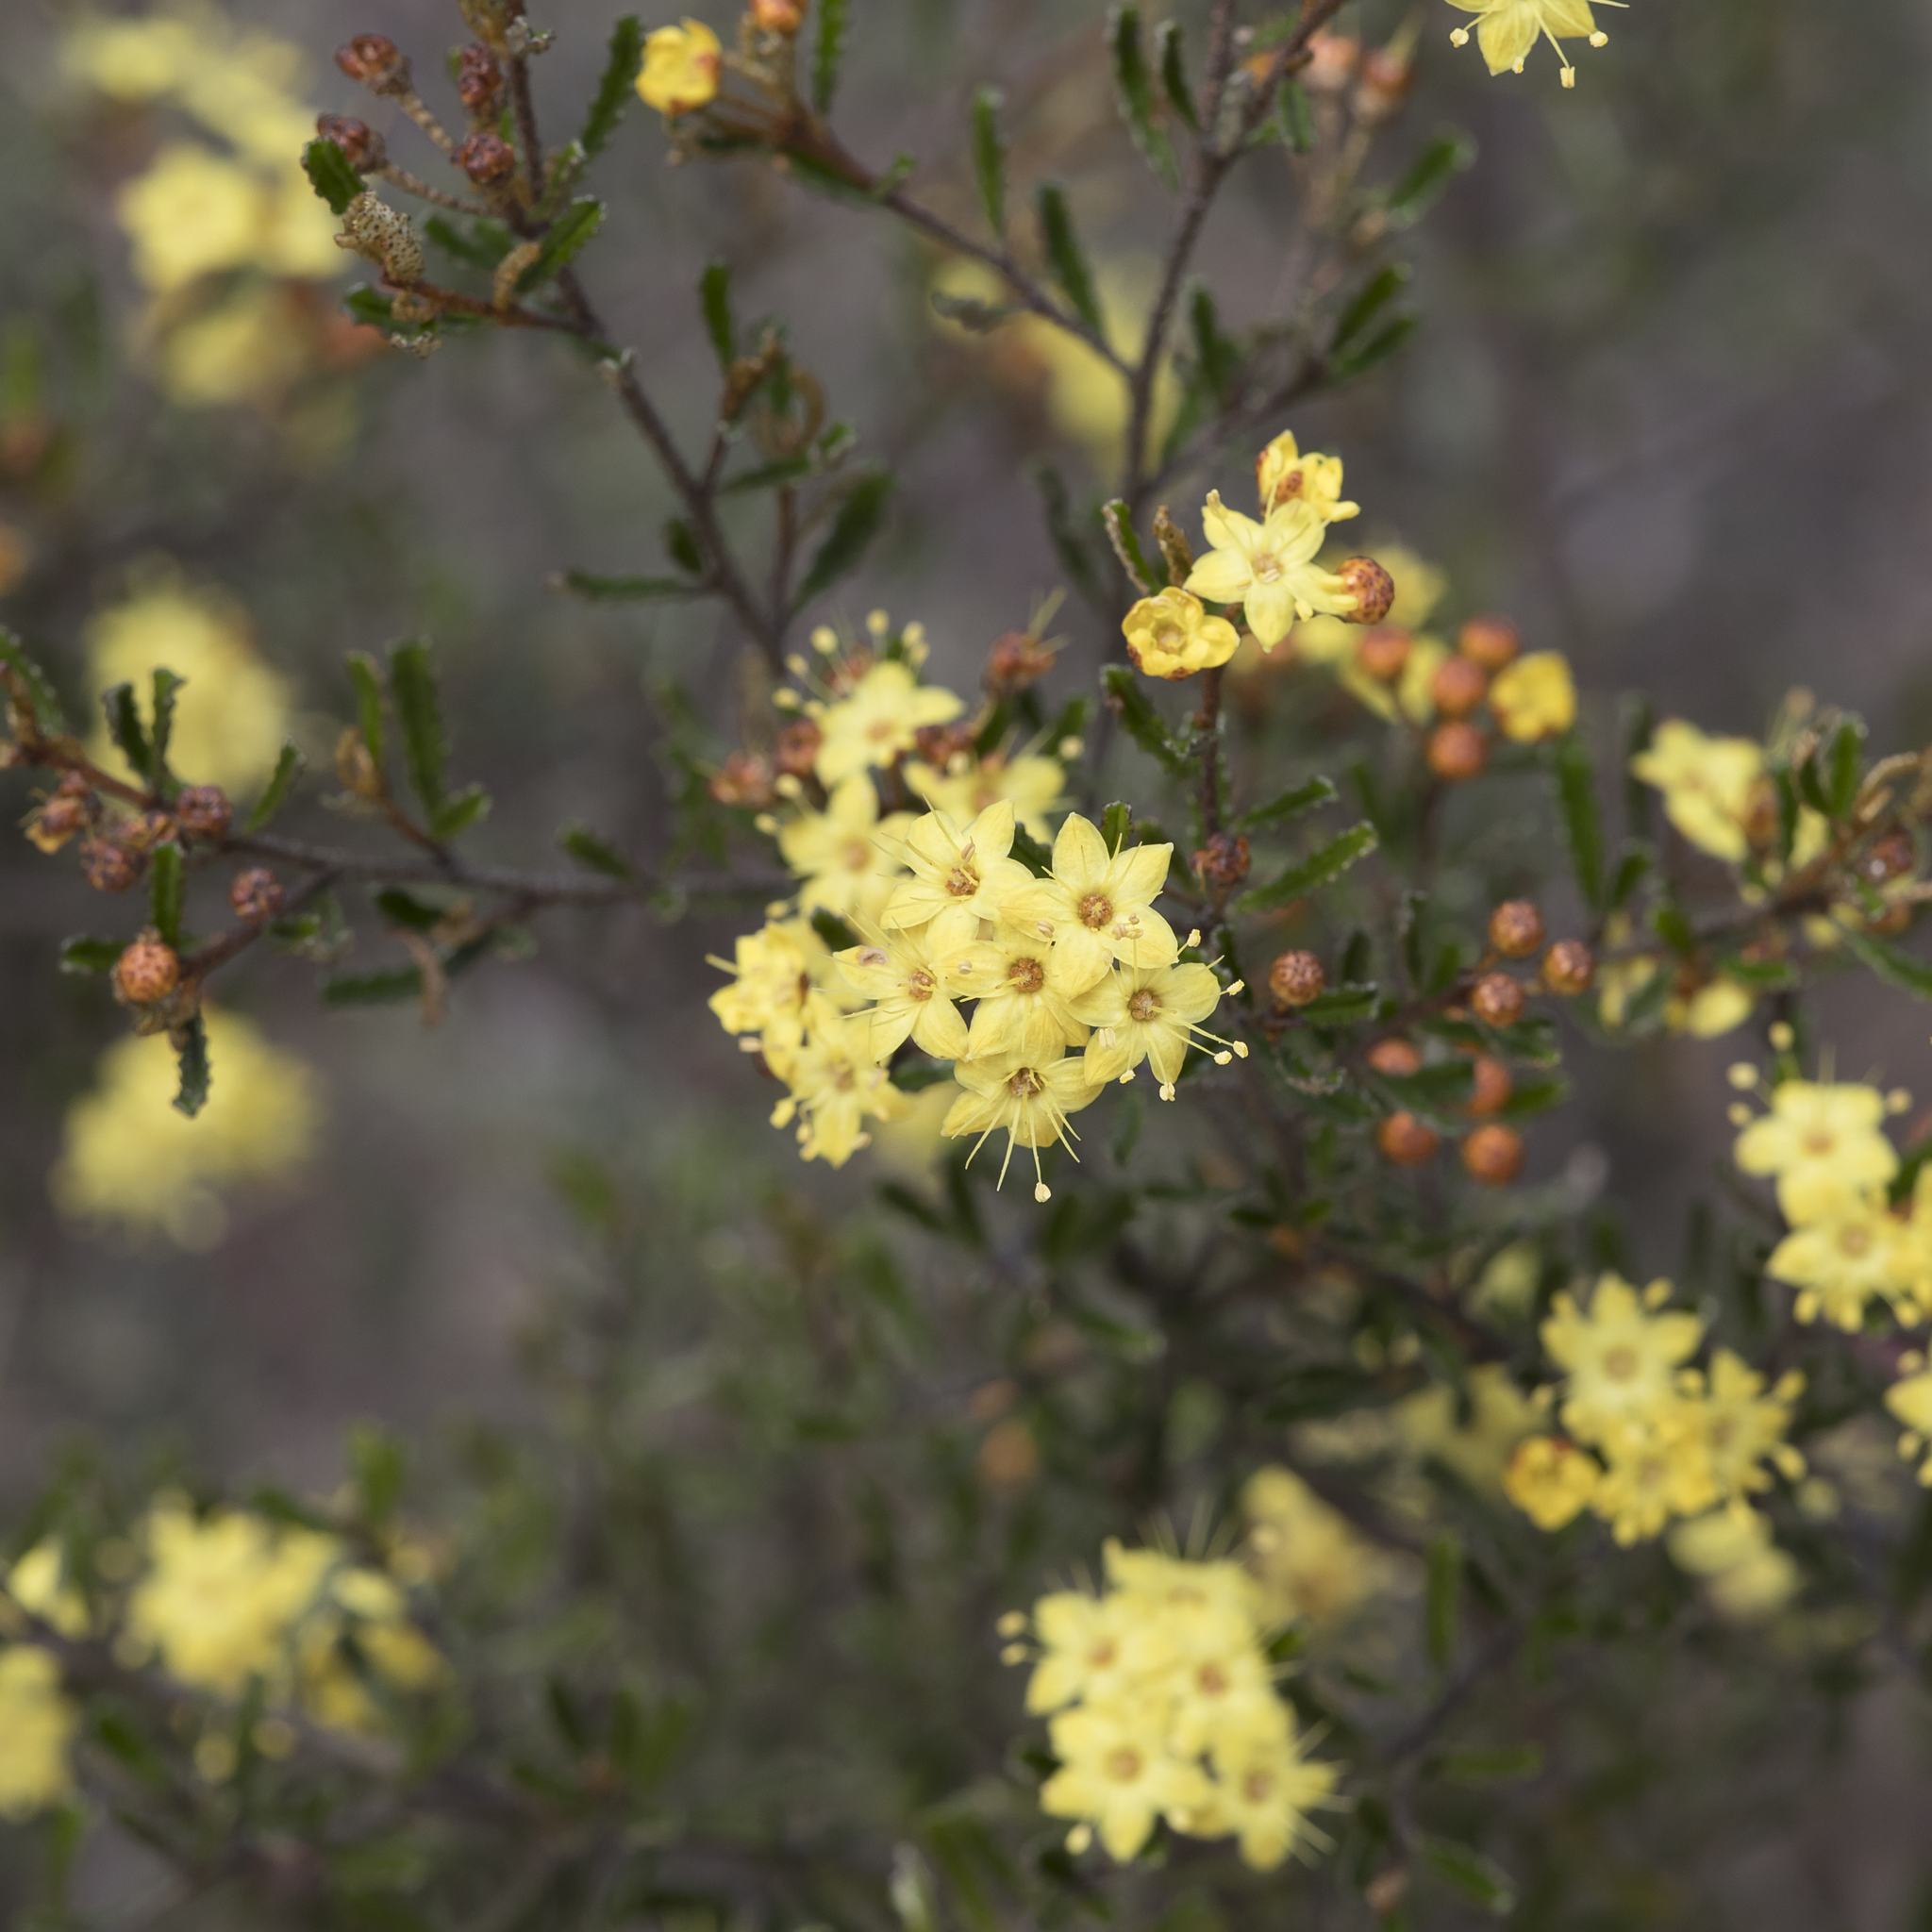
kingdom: Plantae
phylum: Tracheophyta
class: Magnoliopsida
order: Sapindales
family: Rutaceae
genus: Phebalium
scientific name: Phebalium bullatum
